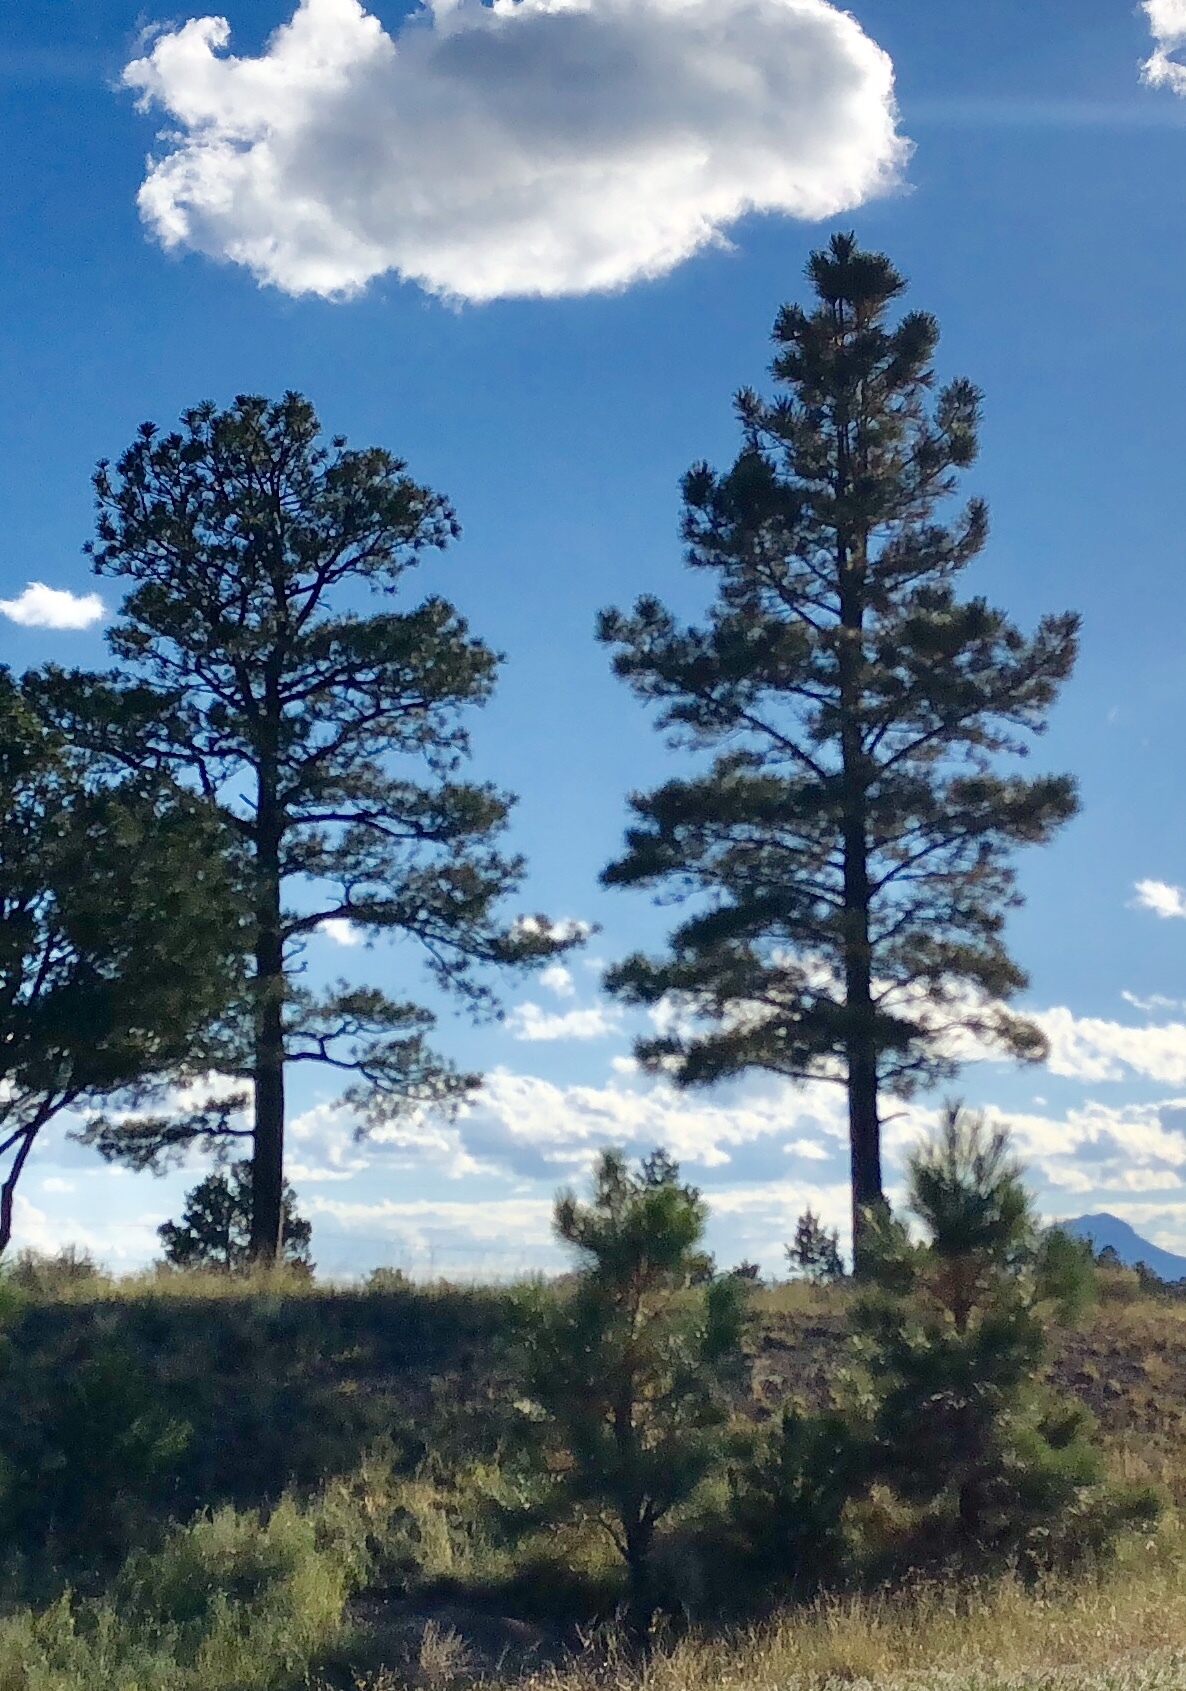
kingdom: Plantae
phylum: Tracheophyta
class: Pinopsida
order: Pinales
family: Pinaceae
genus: Pinus
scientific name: Pinus ponderosa
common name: Western yellow-pine
